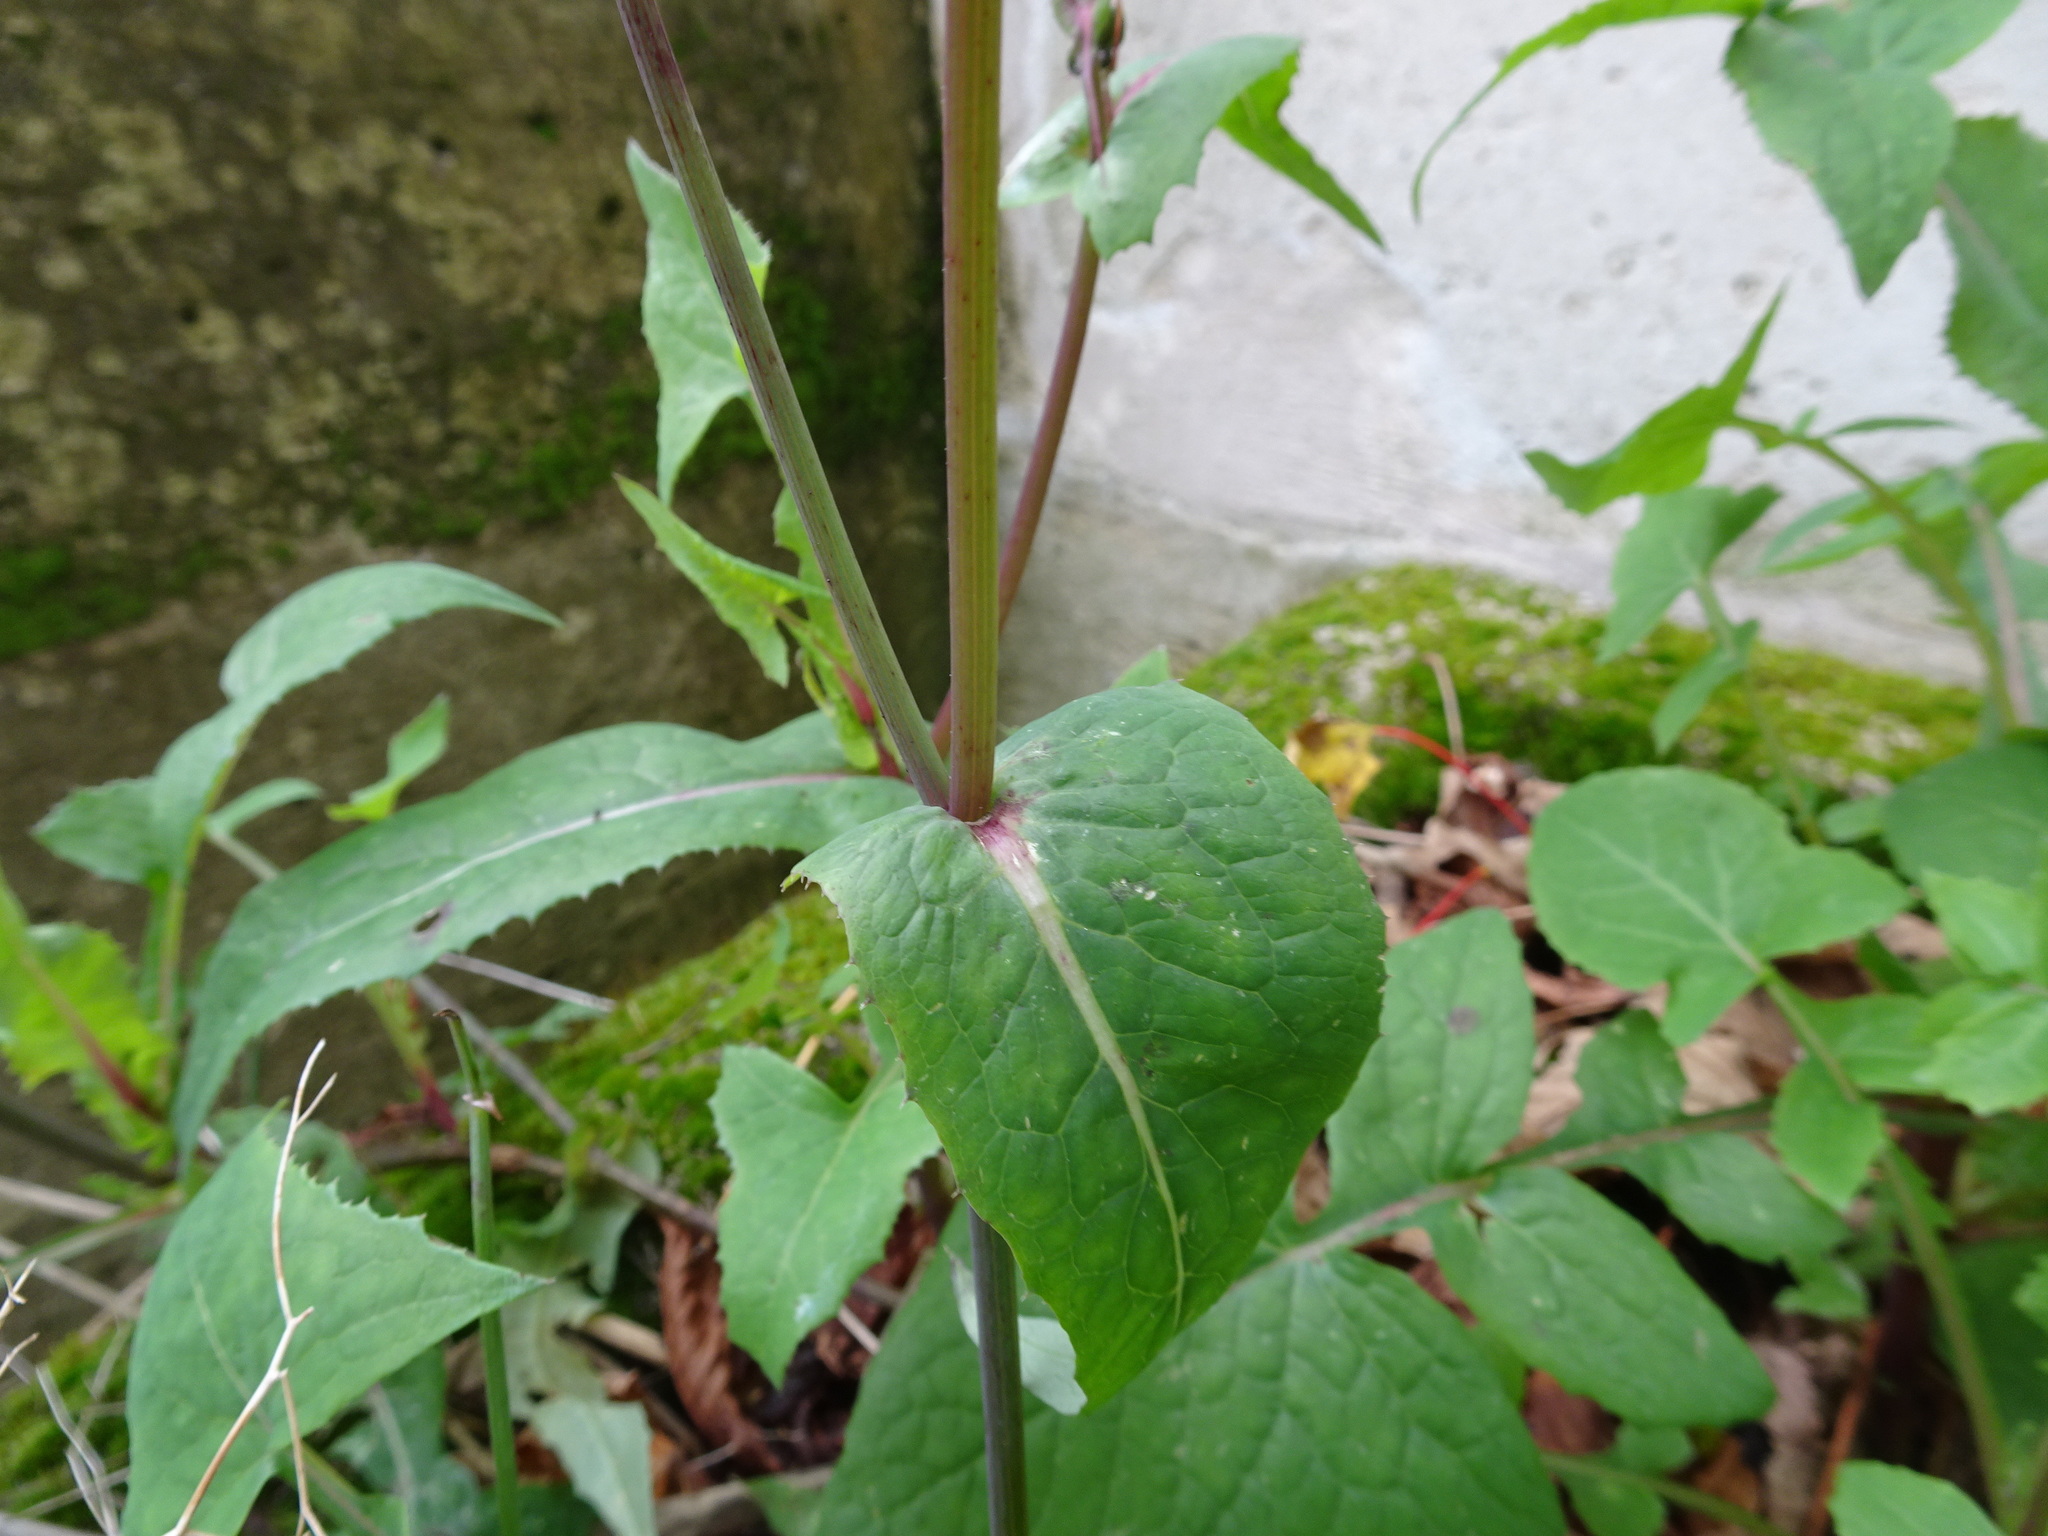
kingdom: Plantae
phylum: Tracheophyta
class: Magnoliopsida
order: Asterales
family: Asteraceae
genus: Sonchus
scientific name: Sonchus oleraceus
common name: Common sowthistle
